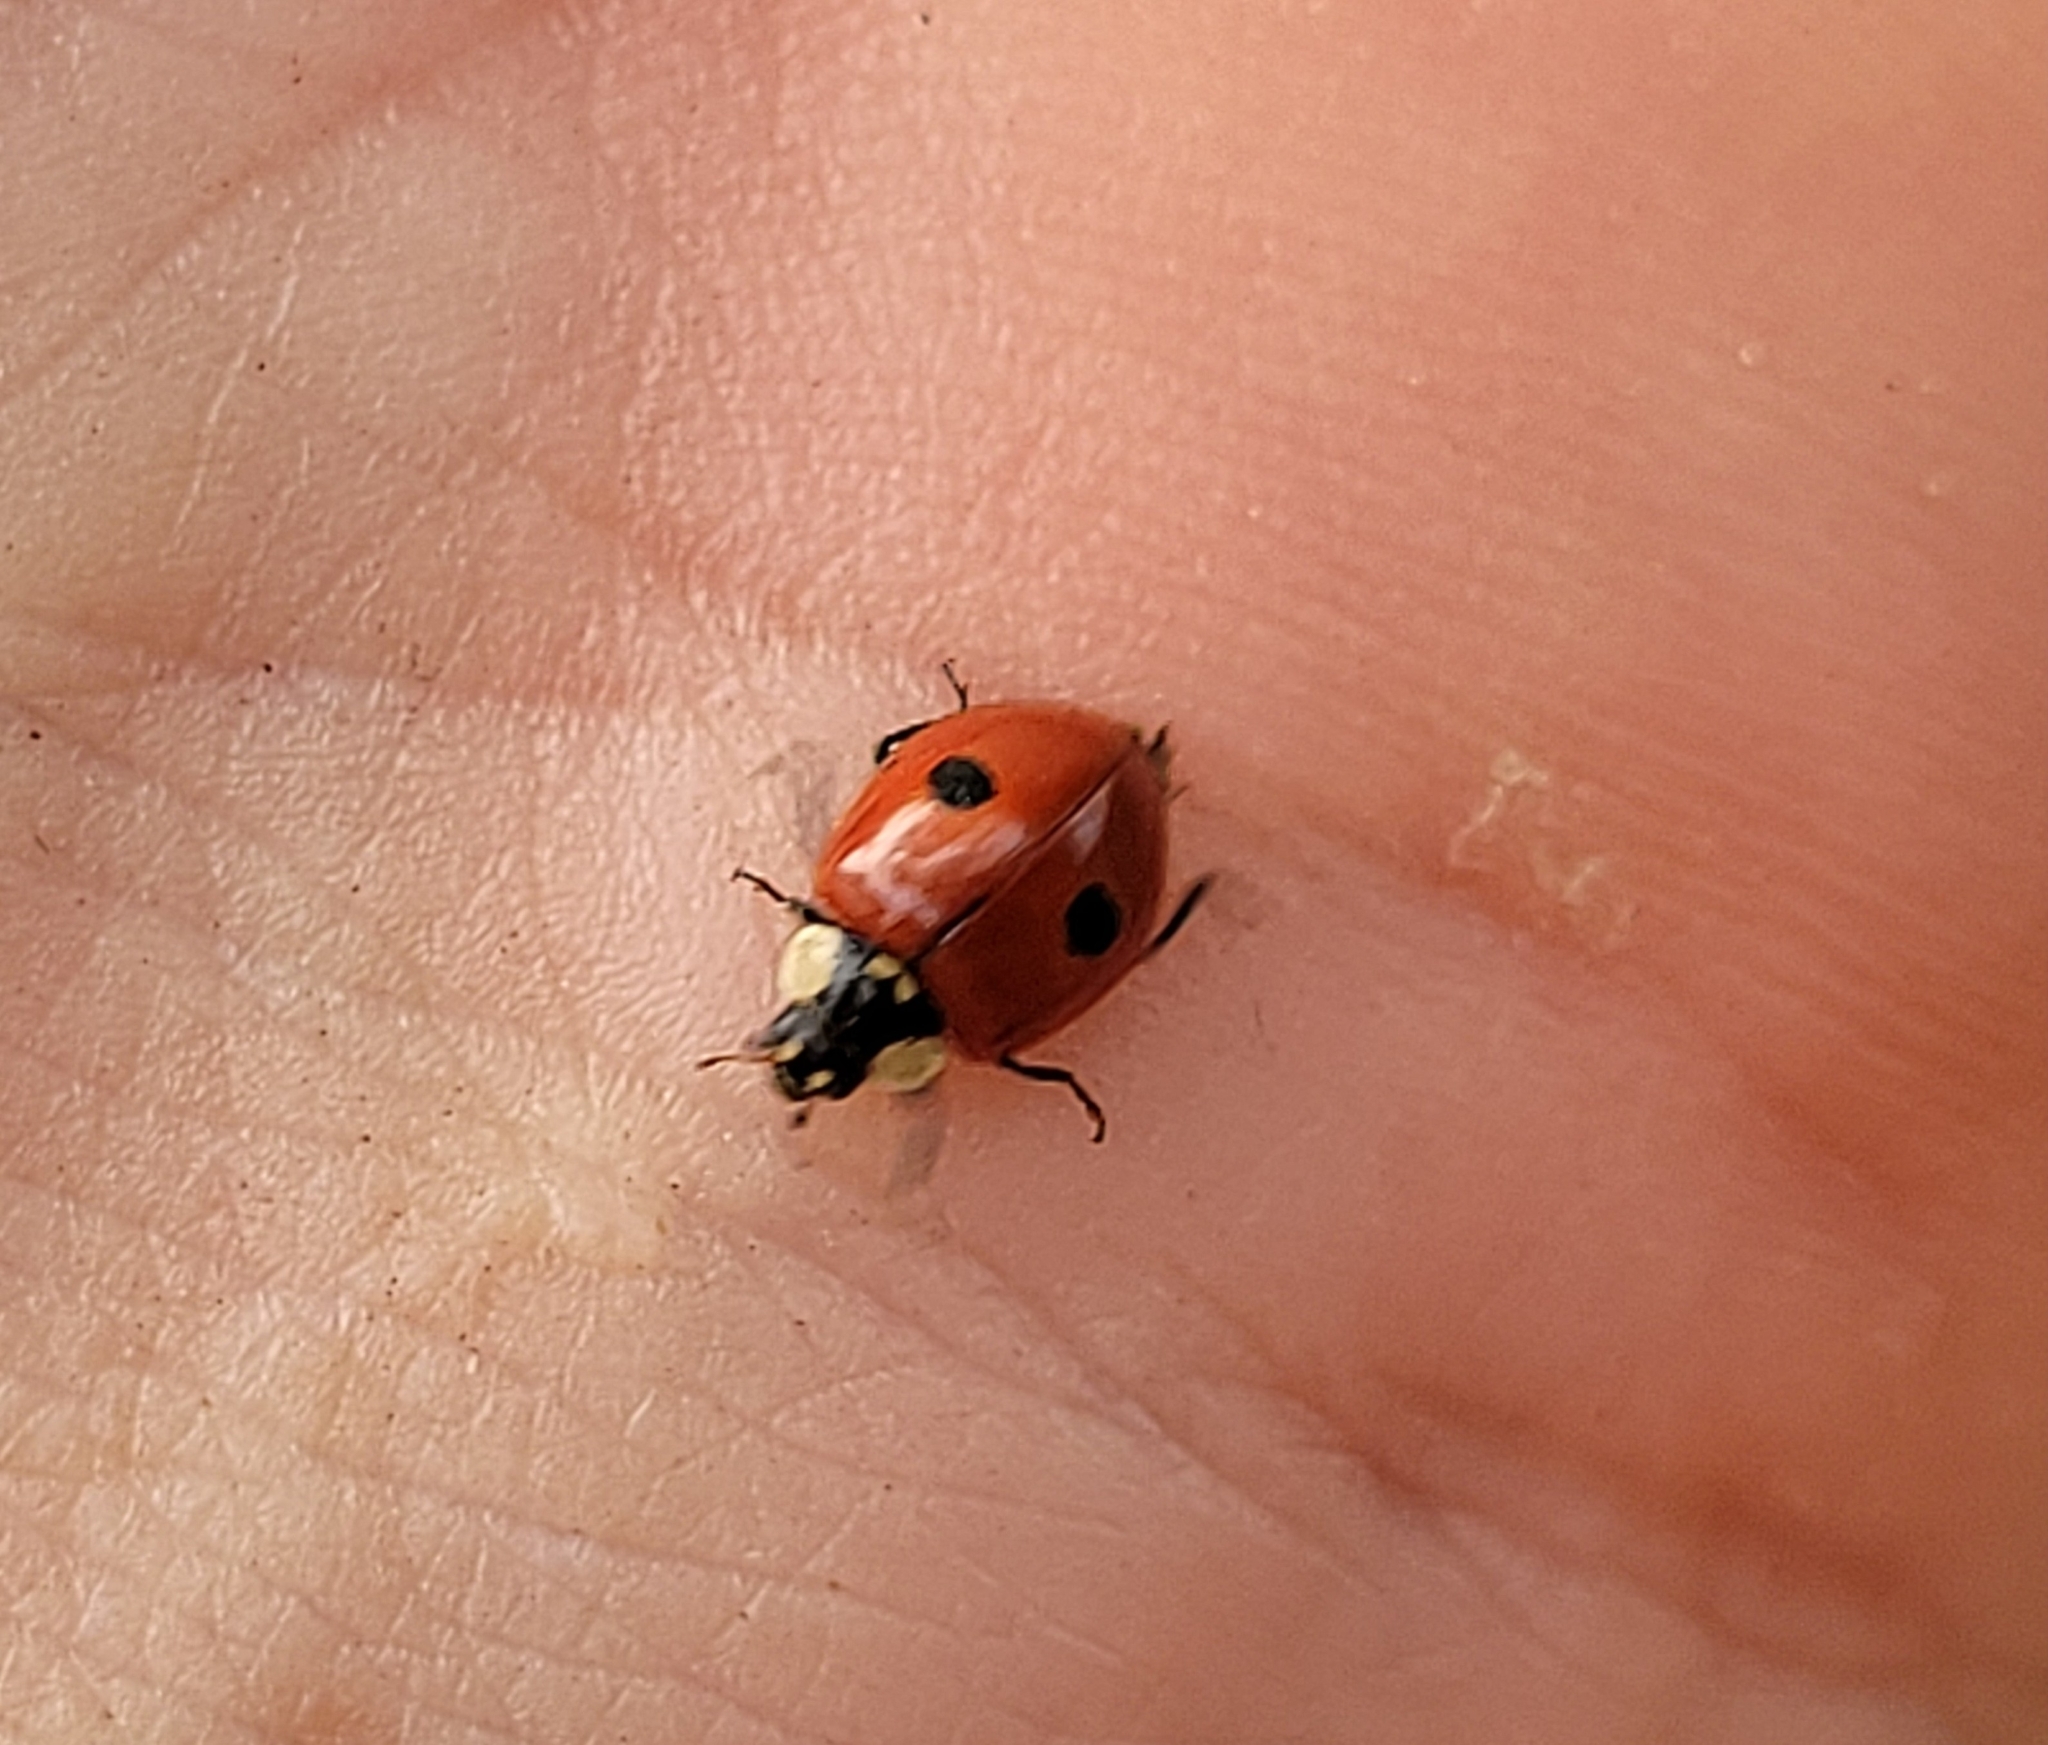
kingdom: Animalia
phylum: Arthropoda
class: Insecta
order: Coleoptera
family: Coccinellidae
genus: Adalia
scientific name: Adalia bipunctata
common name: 2-spot ladybird
